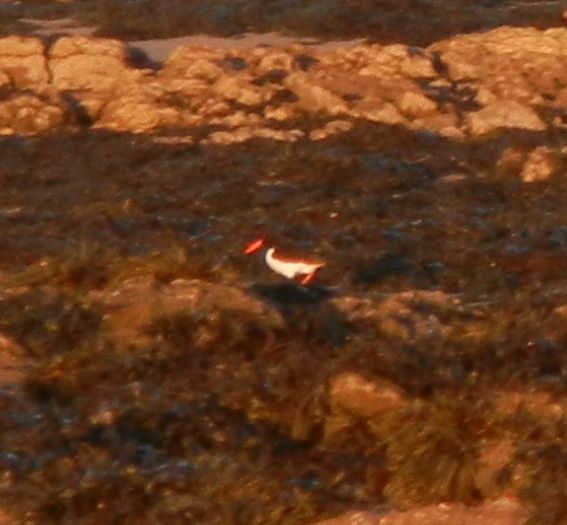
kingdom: Animalia
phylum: Chordata
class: Aves
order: Charadriiformes
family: Haematopodidae
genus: Haematopus
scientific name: Haematopus ostralegus
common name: Eurasian oystercatcher
